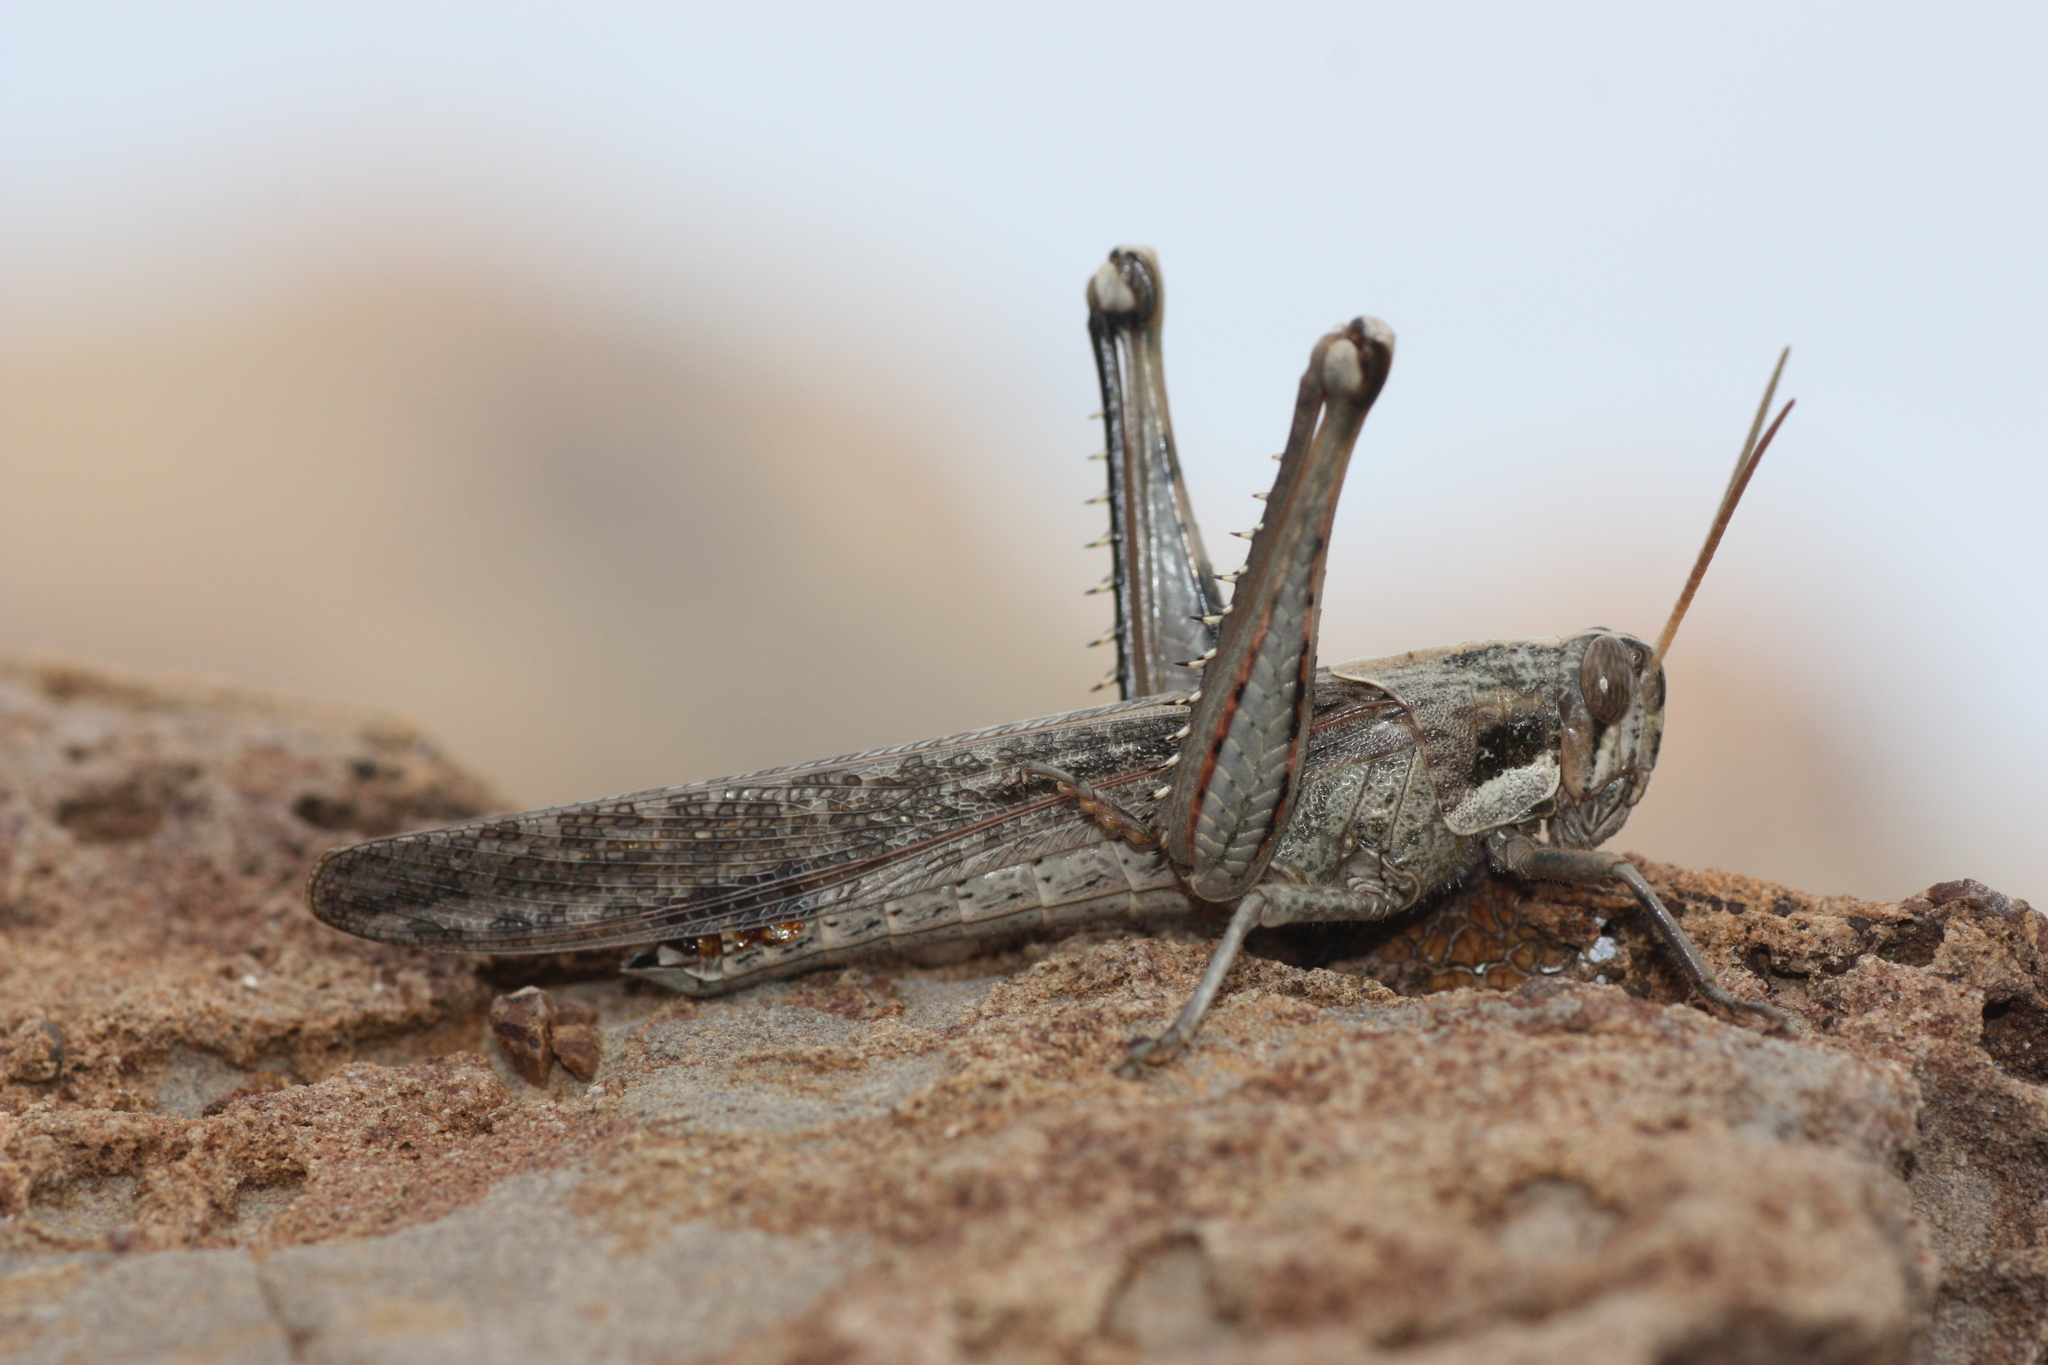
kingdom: Animalia
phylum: Arthropoda
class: Insecta
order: Orthoptera
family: Acrididae
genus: Schistocerca
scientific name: Schistocerca nitens
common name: Vagrant grasshopper
